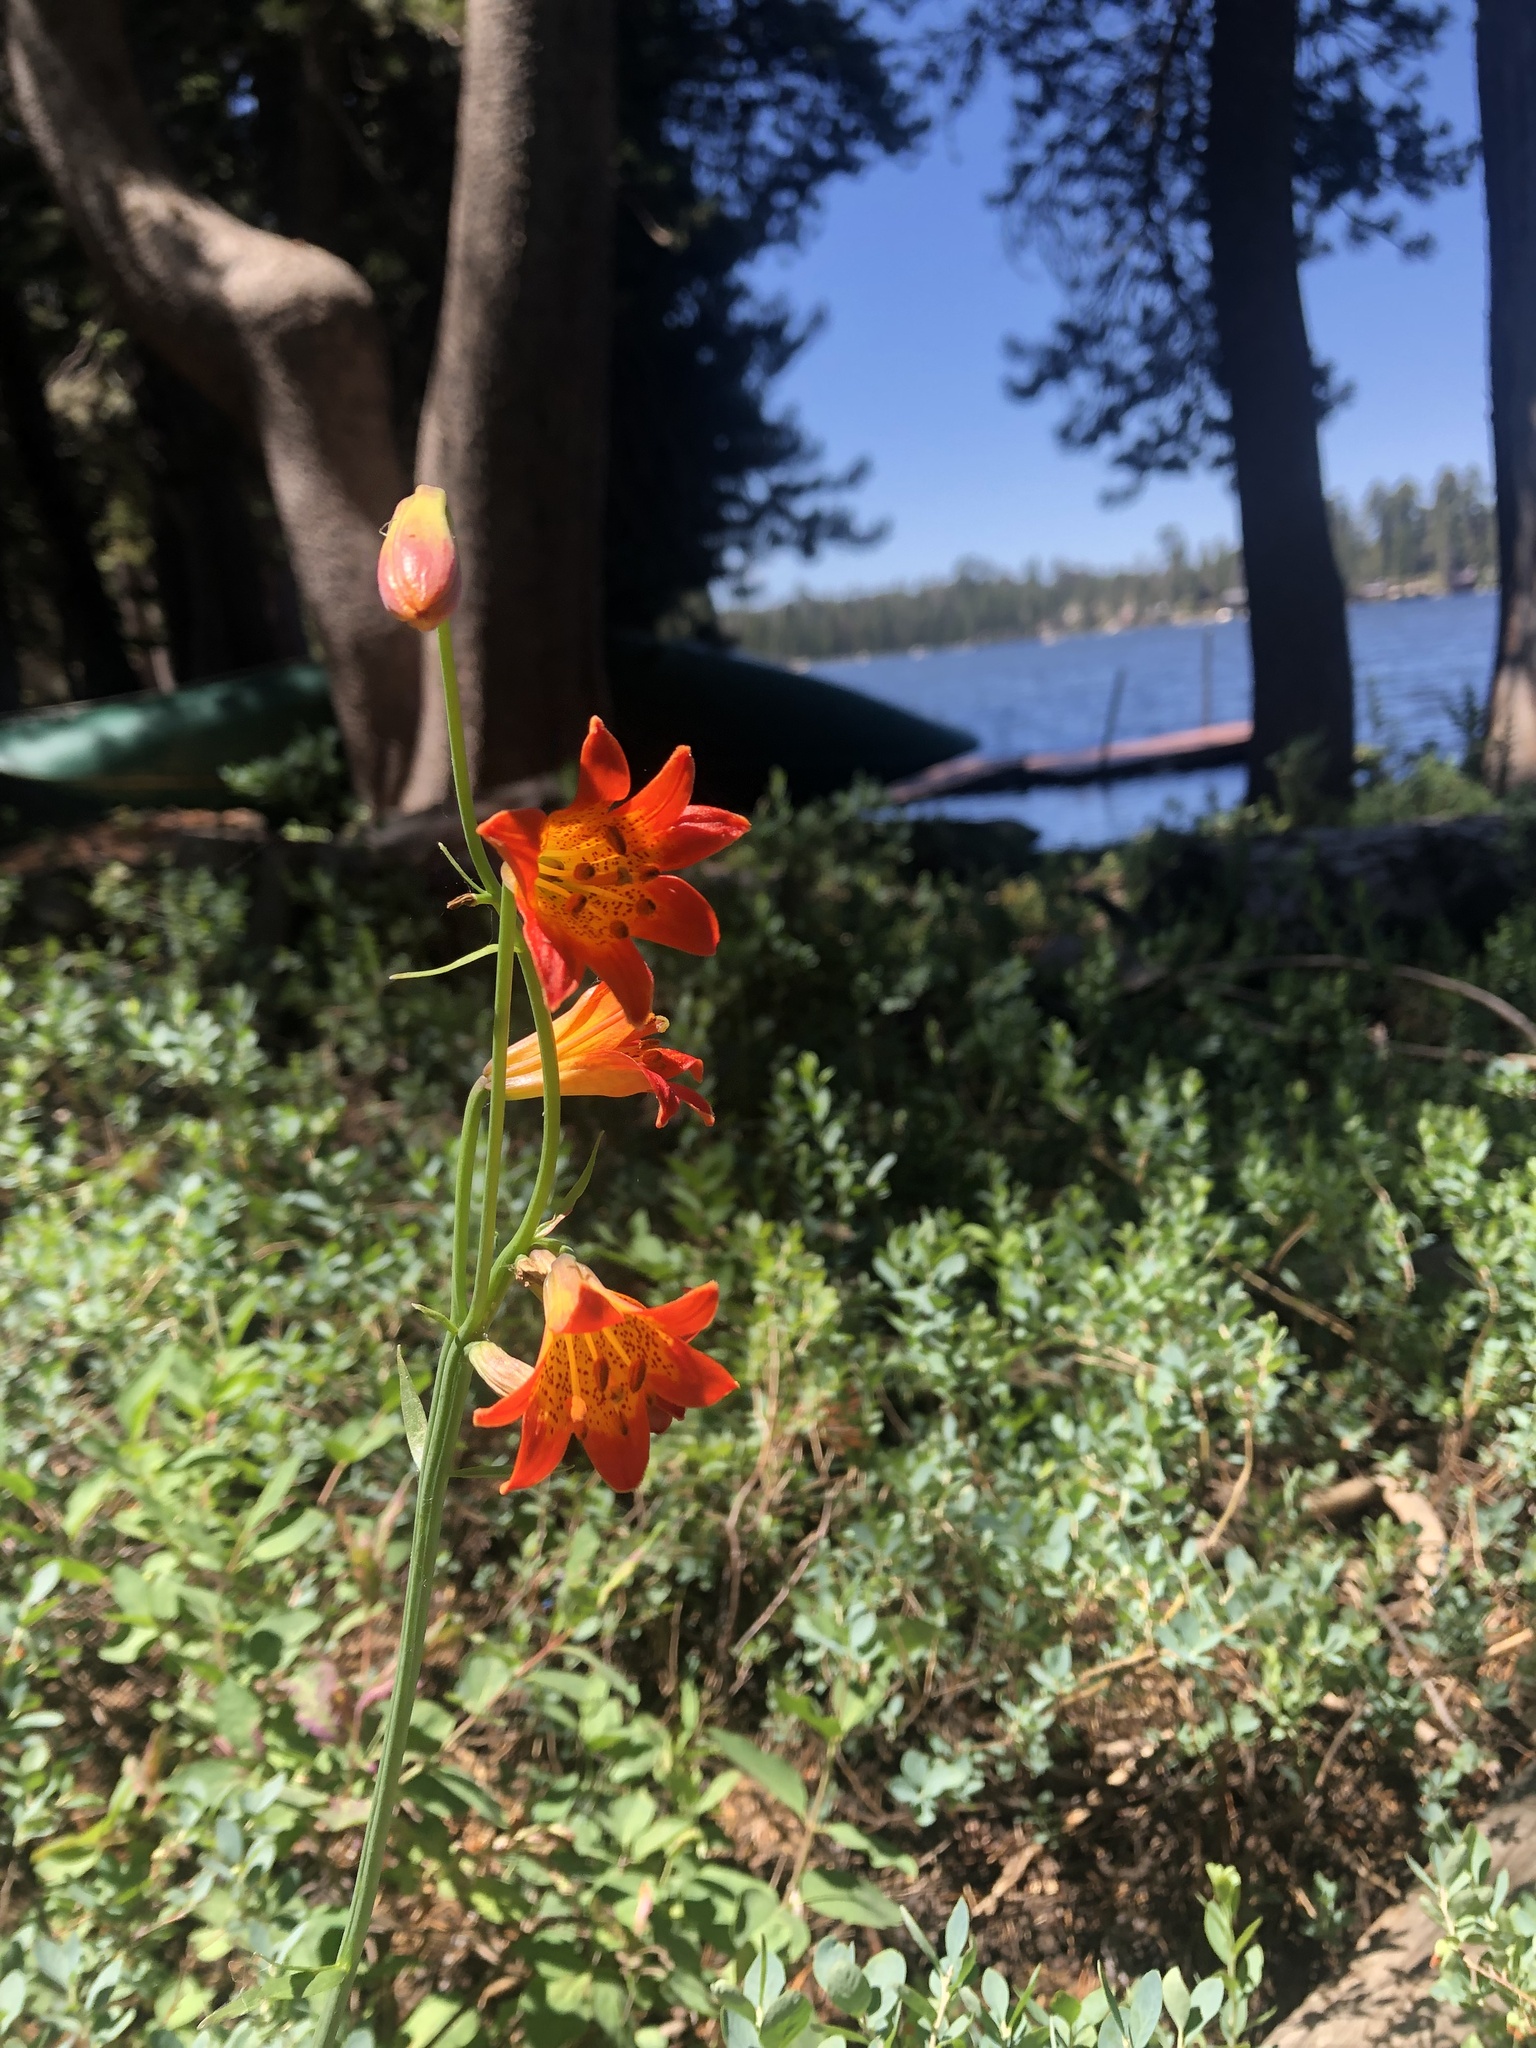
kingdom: Plantae
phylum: Tracheophyta
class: Liliopsida
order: Liliales
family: Liliaceae
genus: Lilium
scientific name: Lilium parvum
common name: Alpine lily
